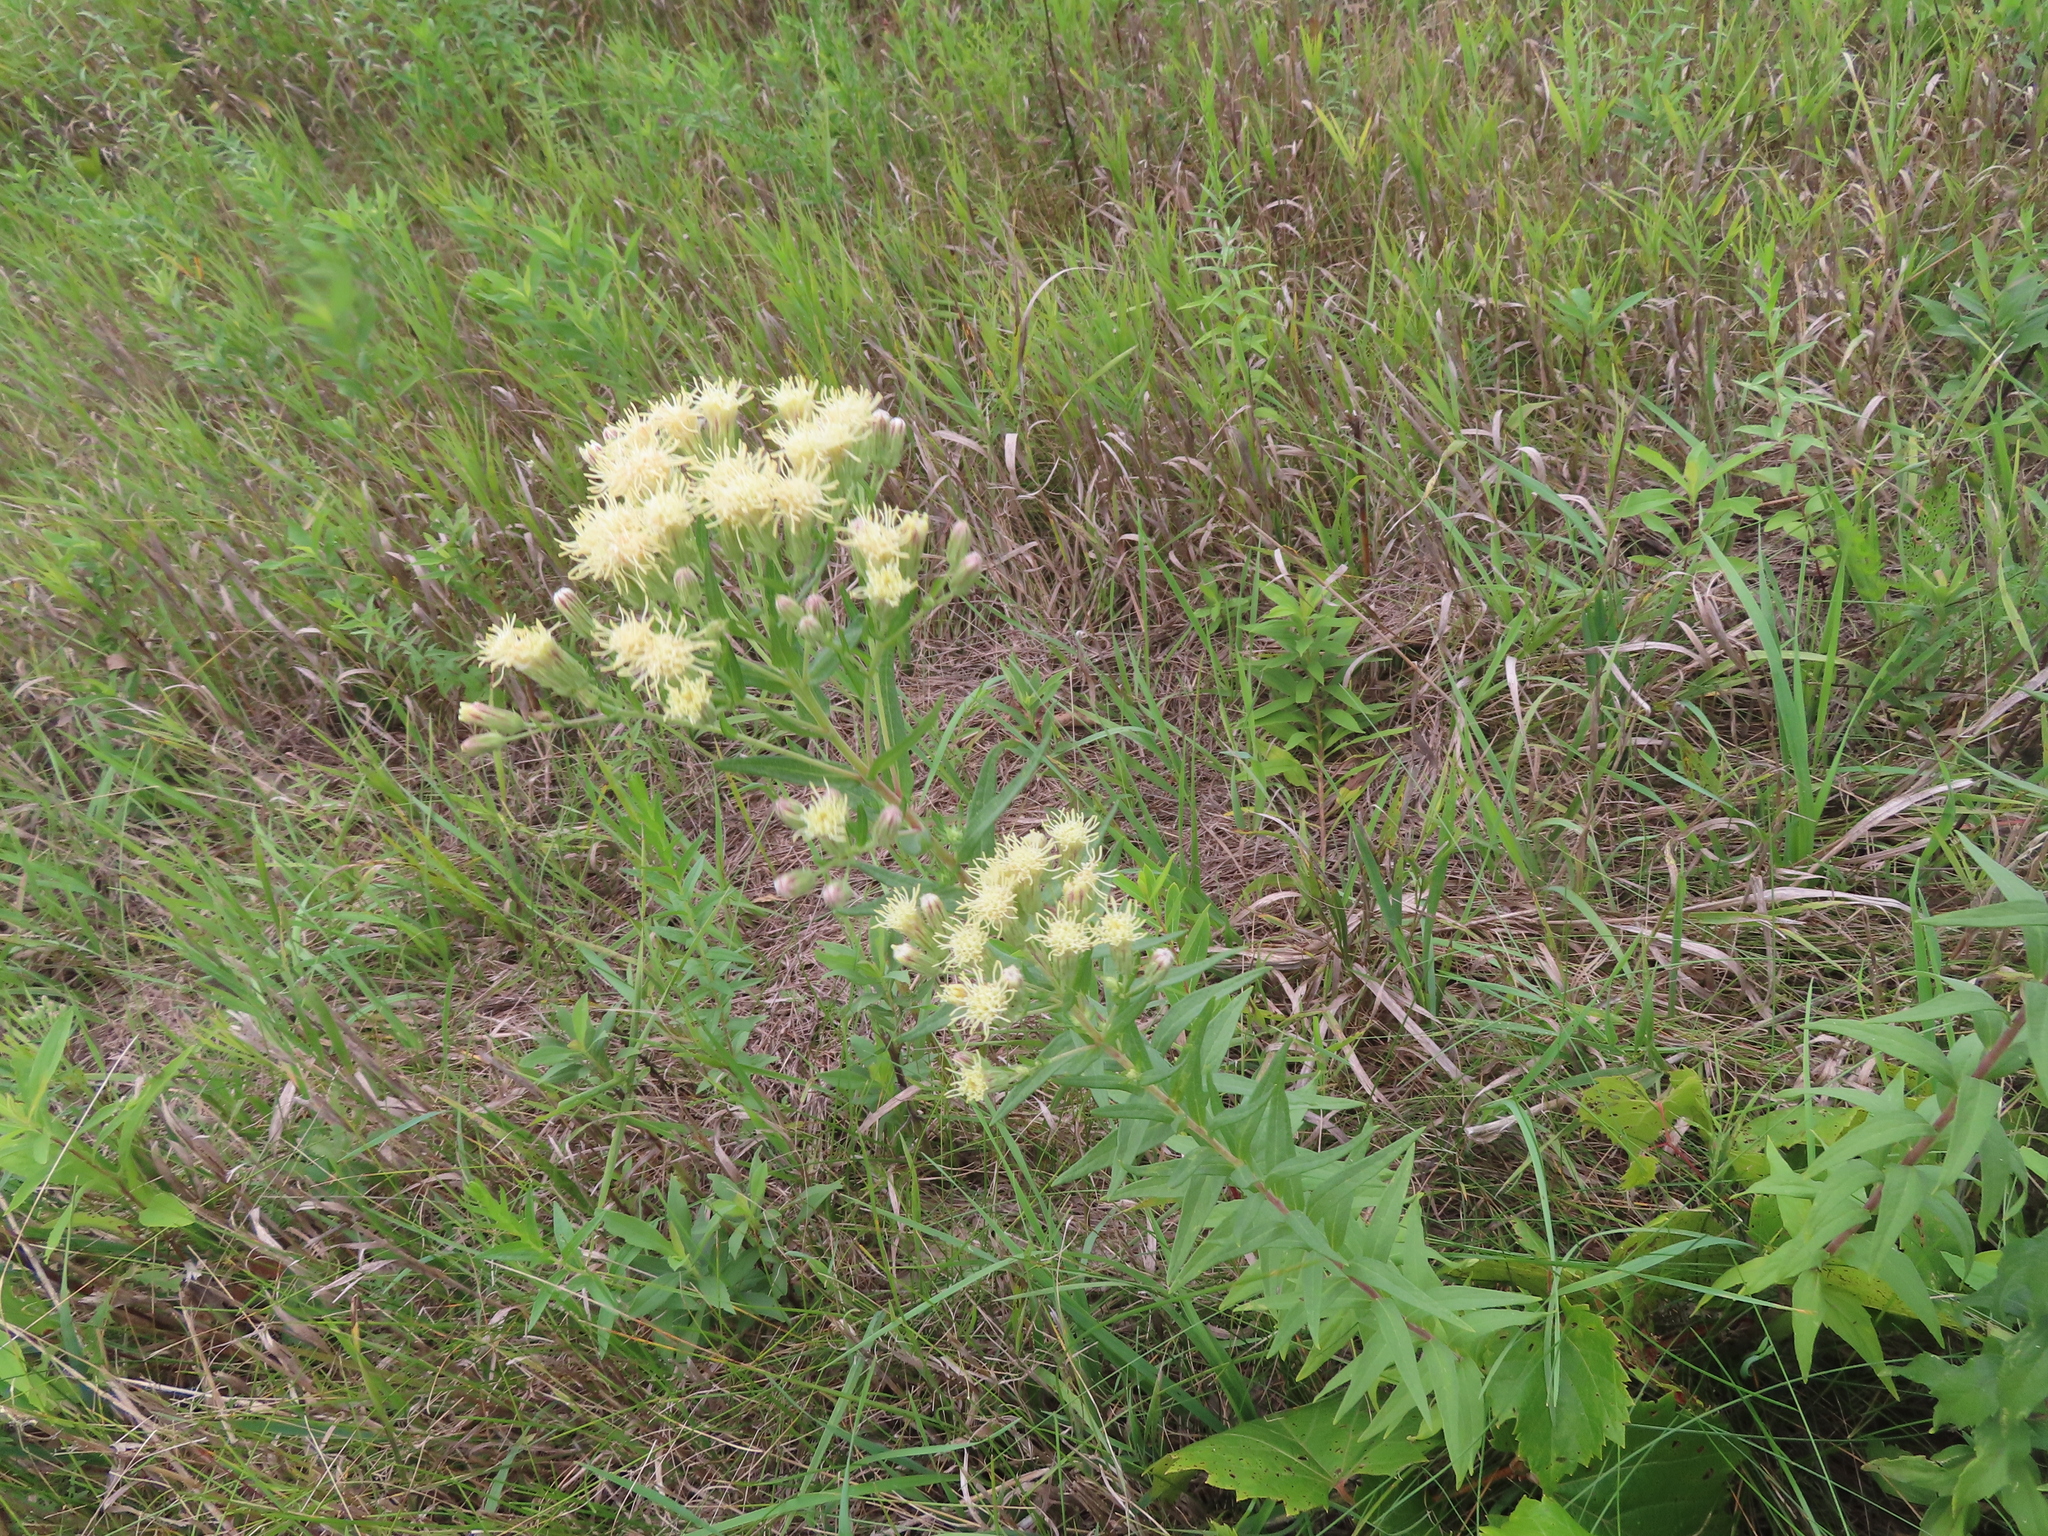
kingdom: Plantae
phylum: Tracheophyta
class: Magnoliopsida
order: Asterales
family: Asteraceae
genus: Brickellia
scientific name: Brickellia eupatorioides
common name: False boneset
